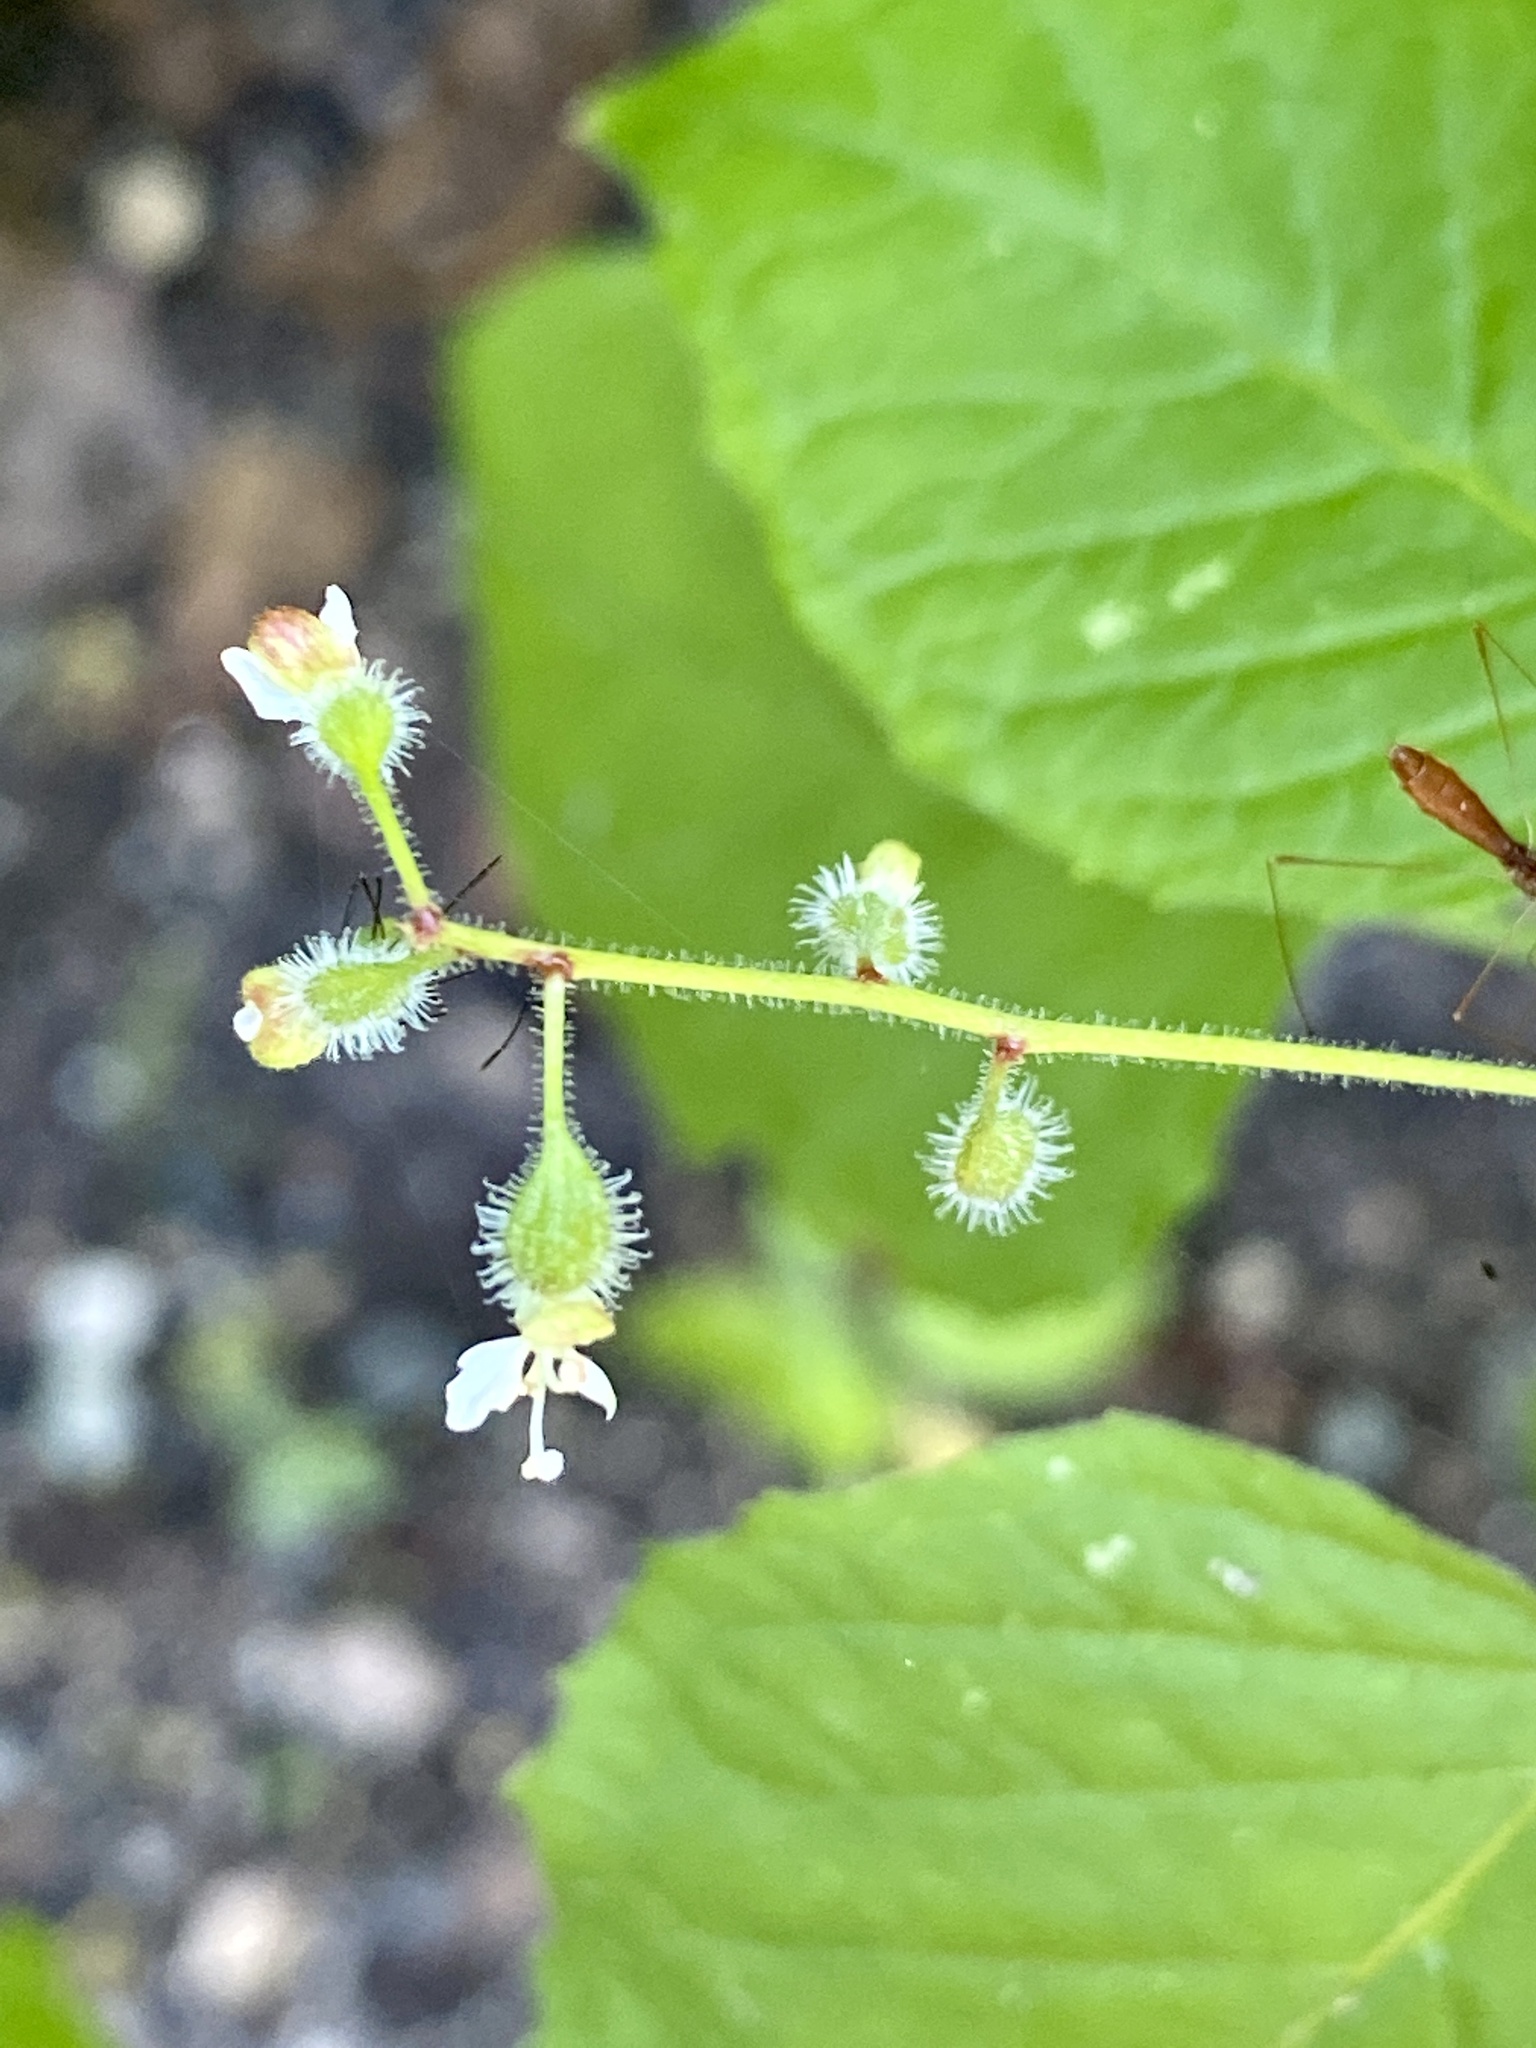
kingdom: Plantae
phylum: Tracheophyta
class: Magnoliopsida
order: Myrtales
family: Onagraceae
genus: Circaea
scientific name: Circaea canadensis
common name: Broad-leaved enchanter's nightshade
